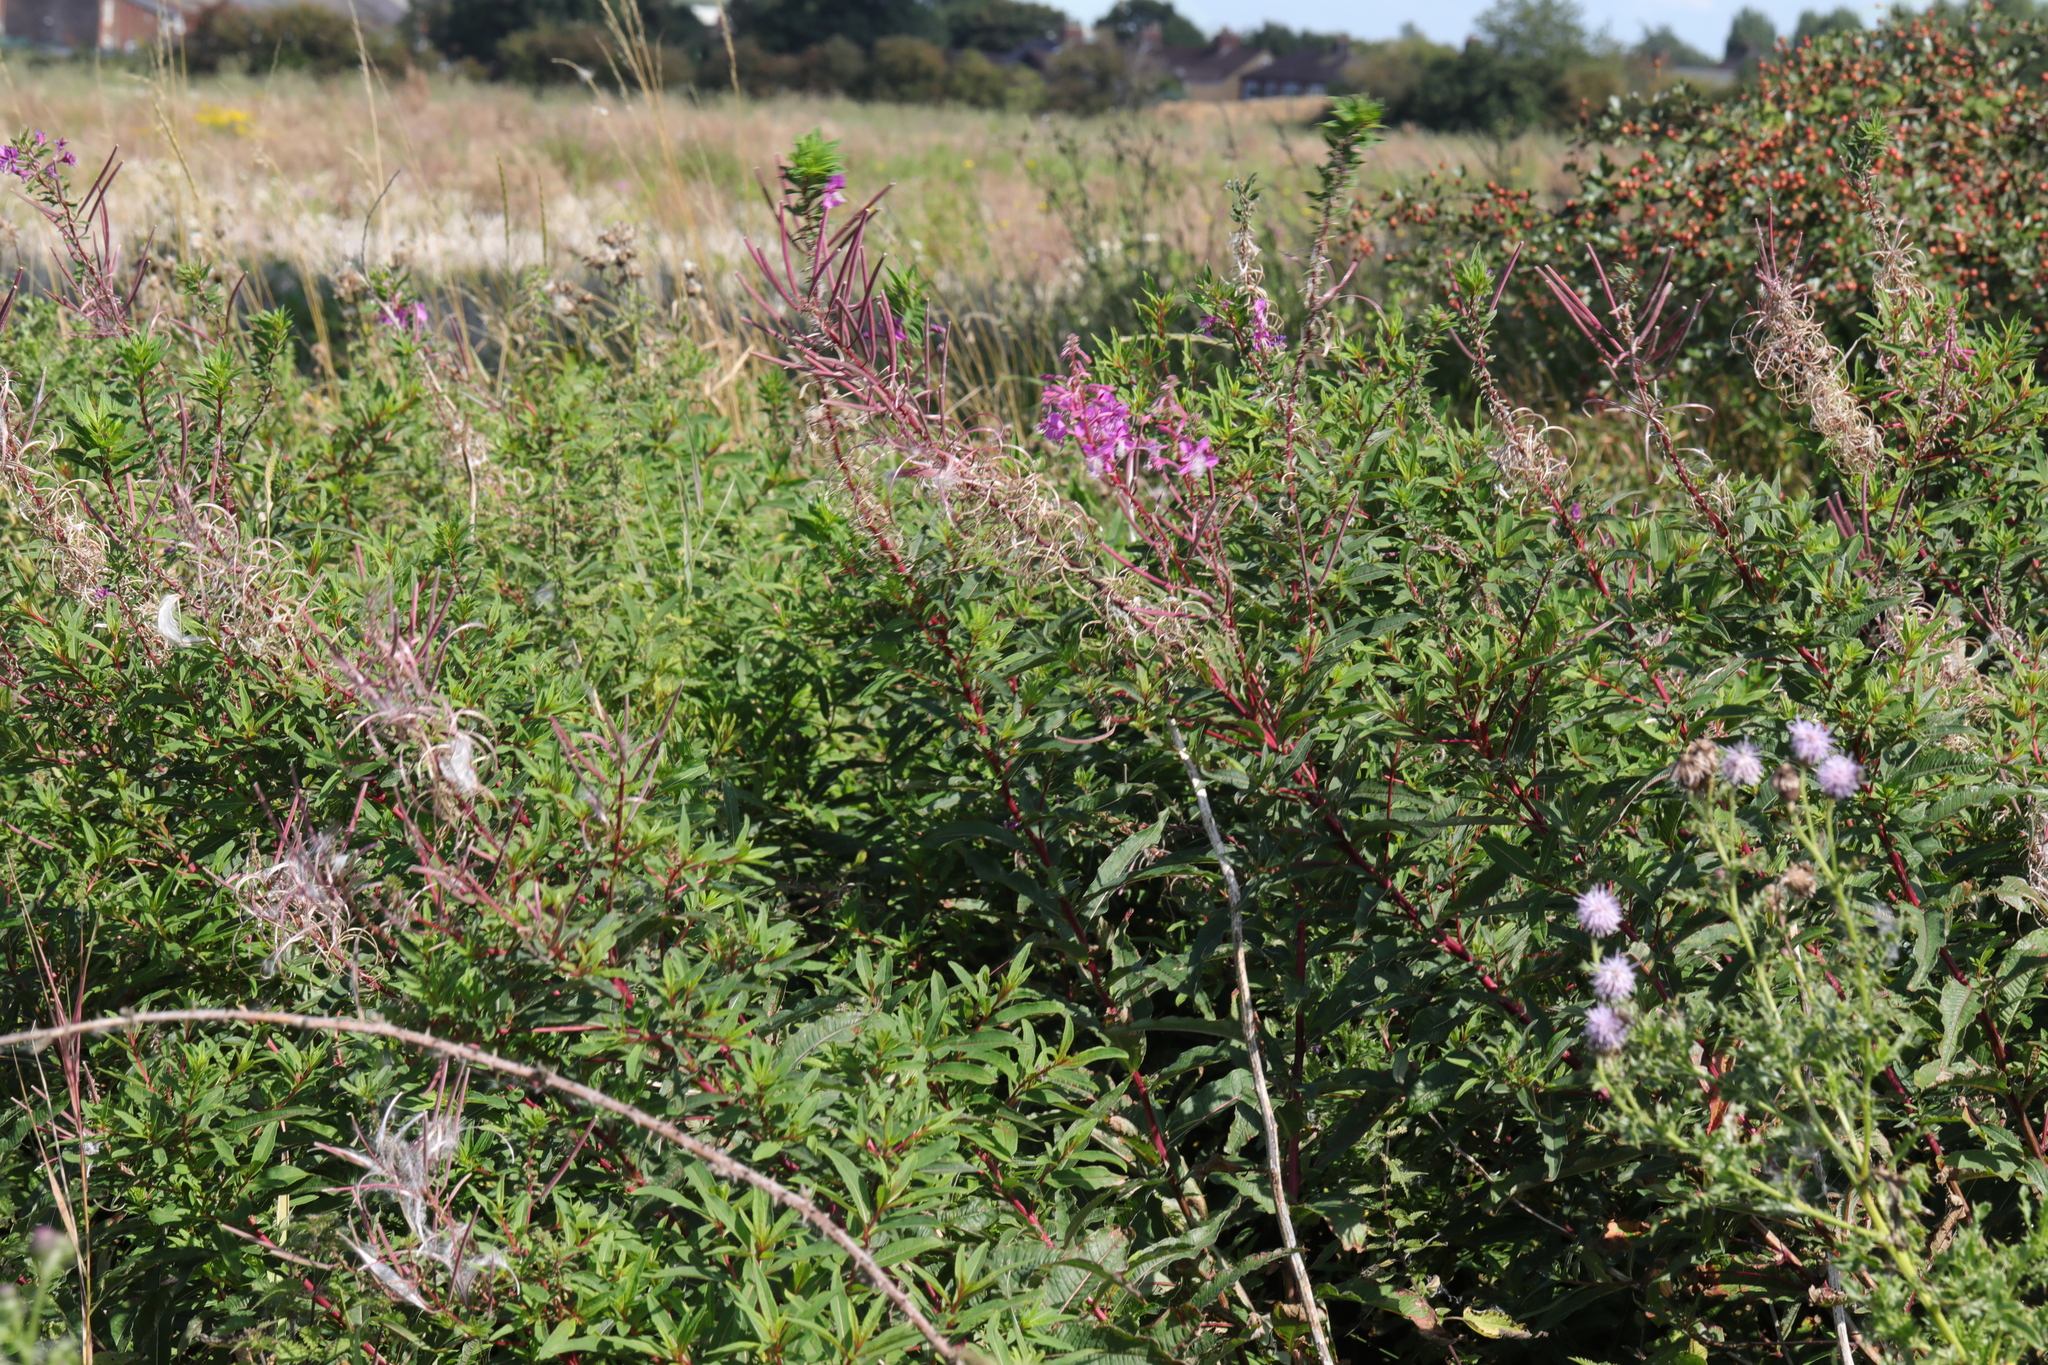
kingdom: Plantae
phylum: Tracheophyta
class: Magnoliopsida
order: Myrtales
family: Onagraceae
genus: Chamaenerion
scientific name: Chamaenerion angustifolium
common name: Fireweed
